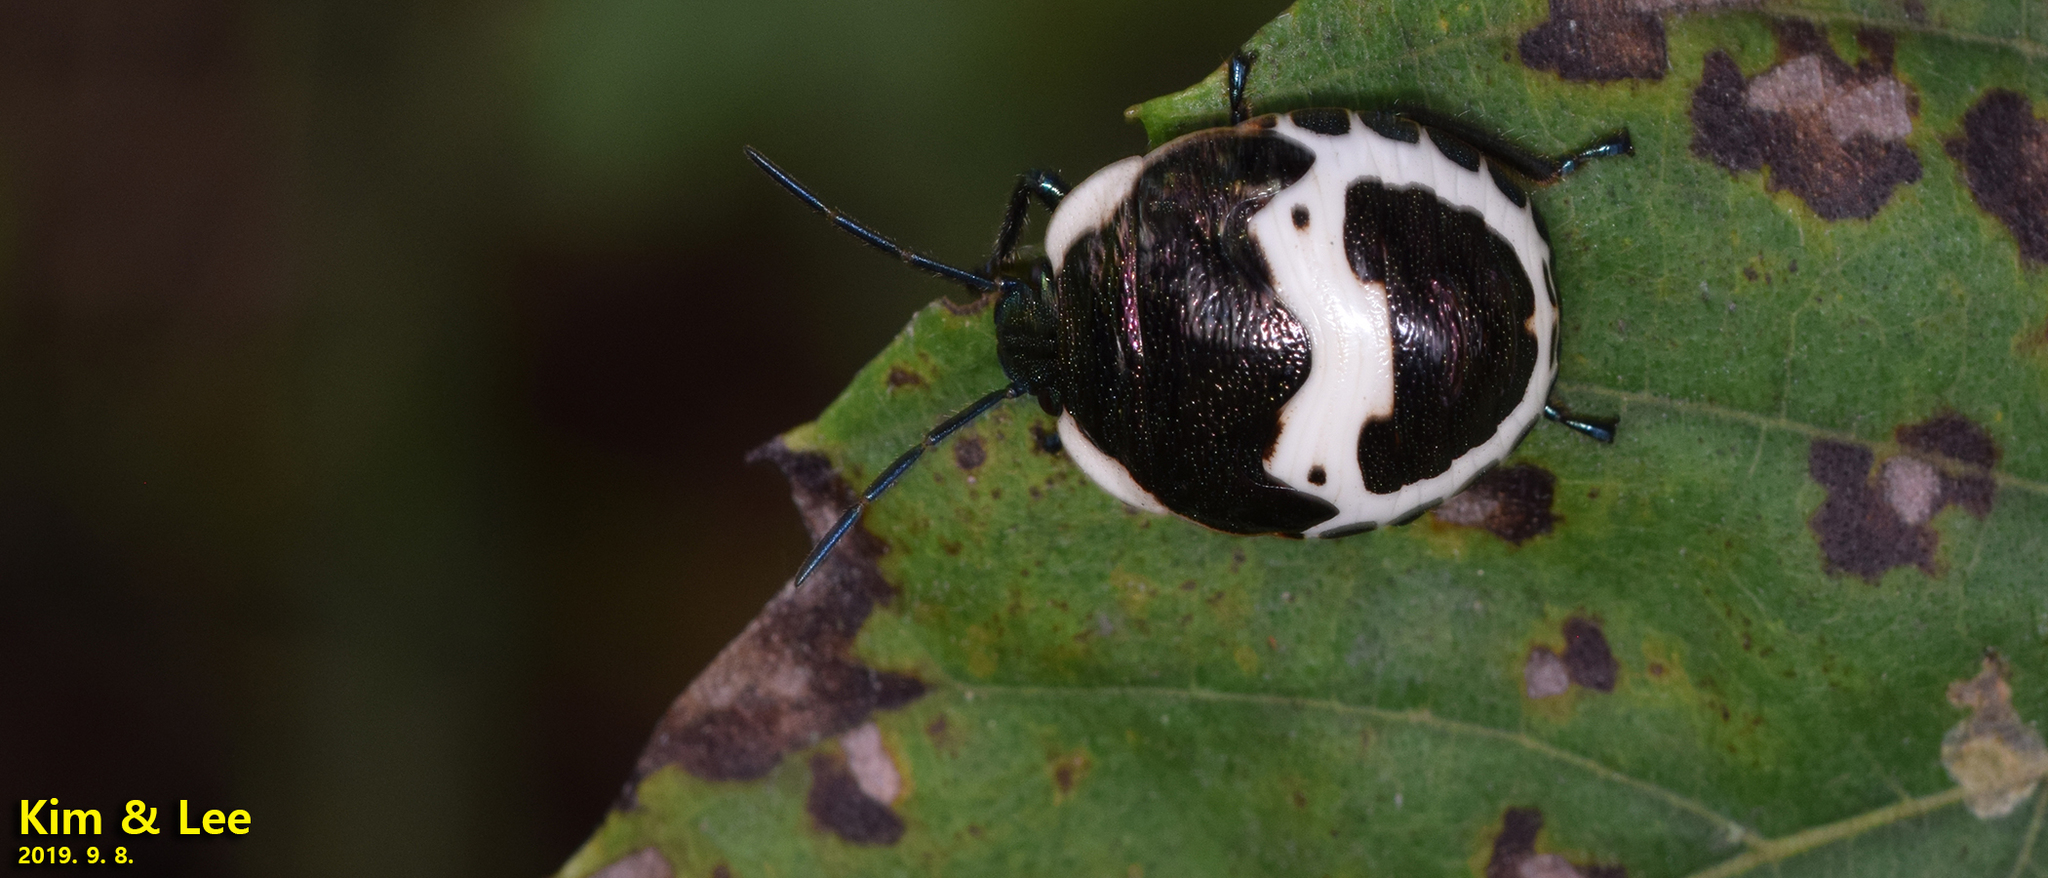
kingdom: Animalia
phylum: Arthropoda
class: Insecta
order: Hemiptera
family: Scutelleridae
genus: Poecilocoris
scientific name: Poecilocoris lewisi
